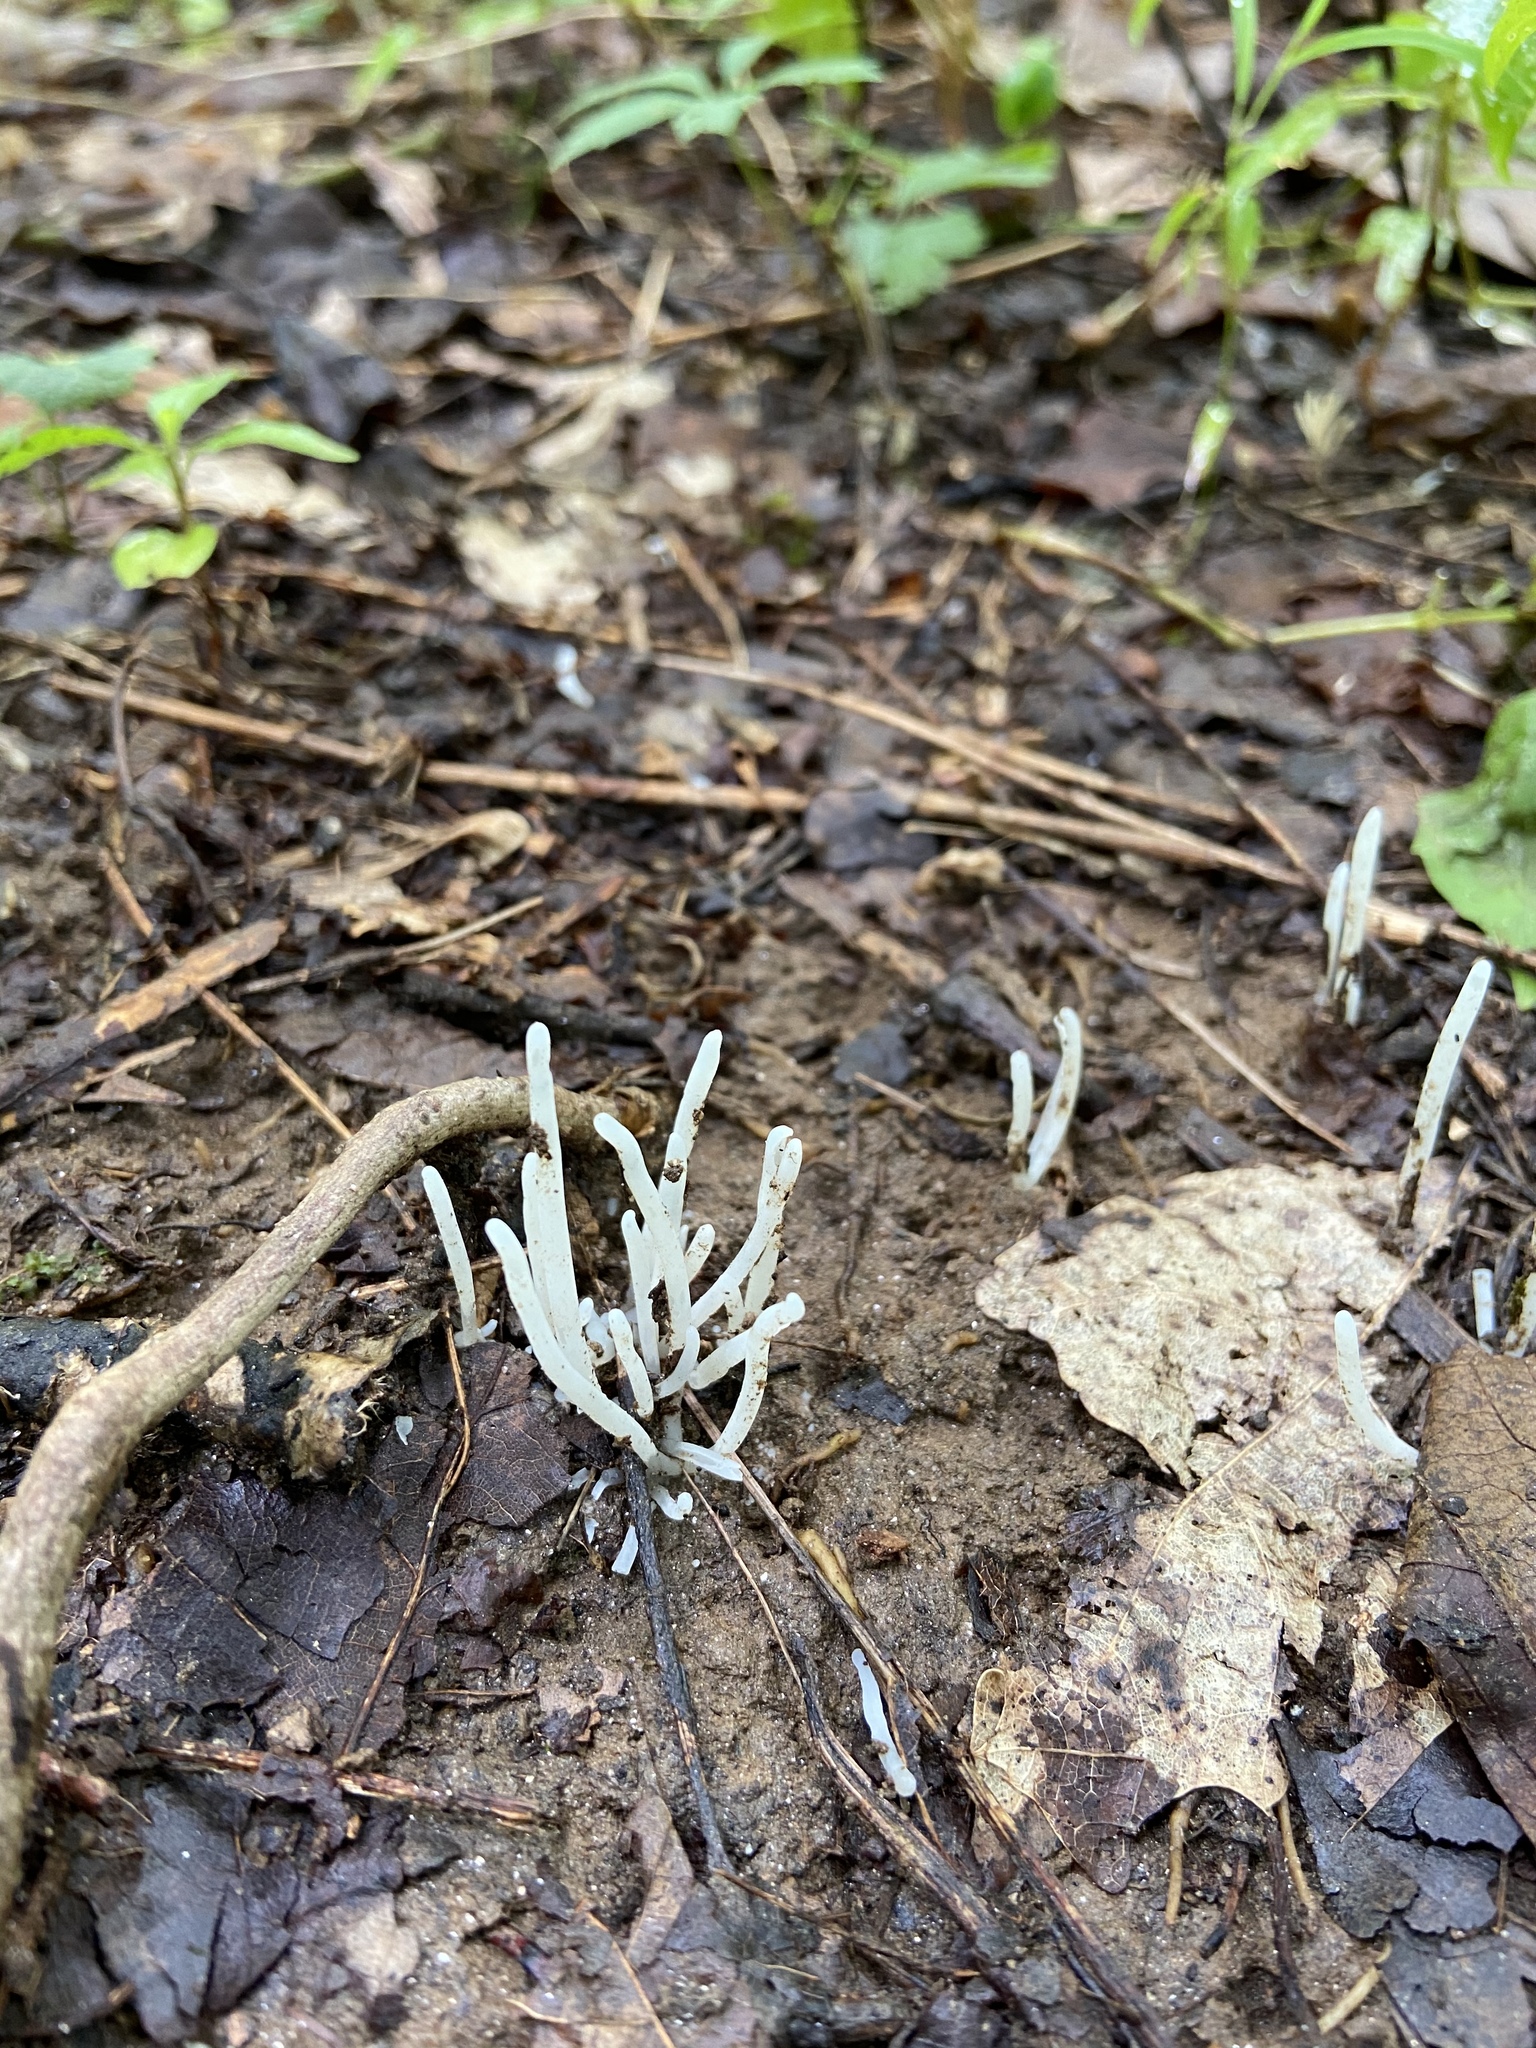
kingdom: Fungi
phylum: Basidiomycota
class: Agaricomycetes
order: Agaricales
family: Clavariaceae
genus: Clavaria
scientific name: Clavaria fragilis
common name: White spindles
